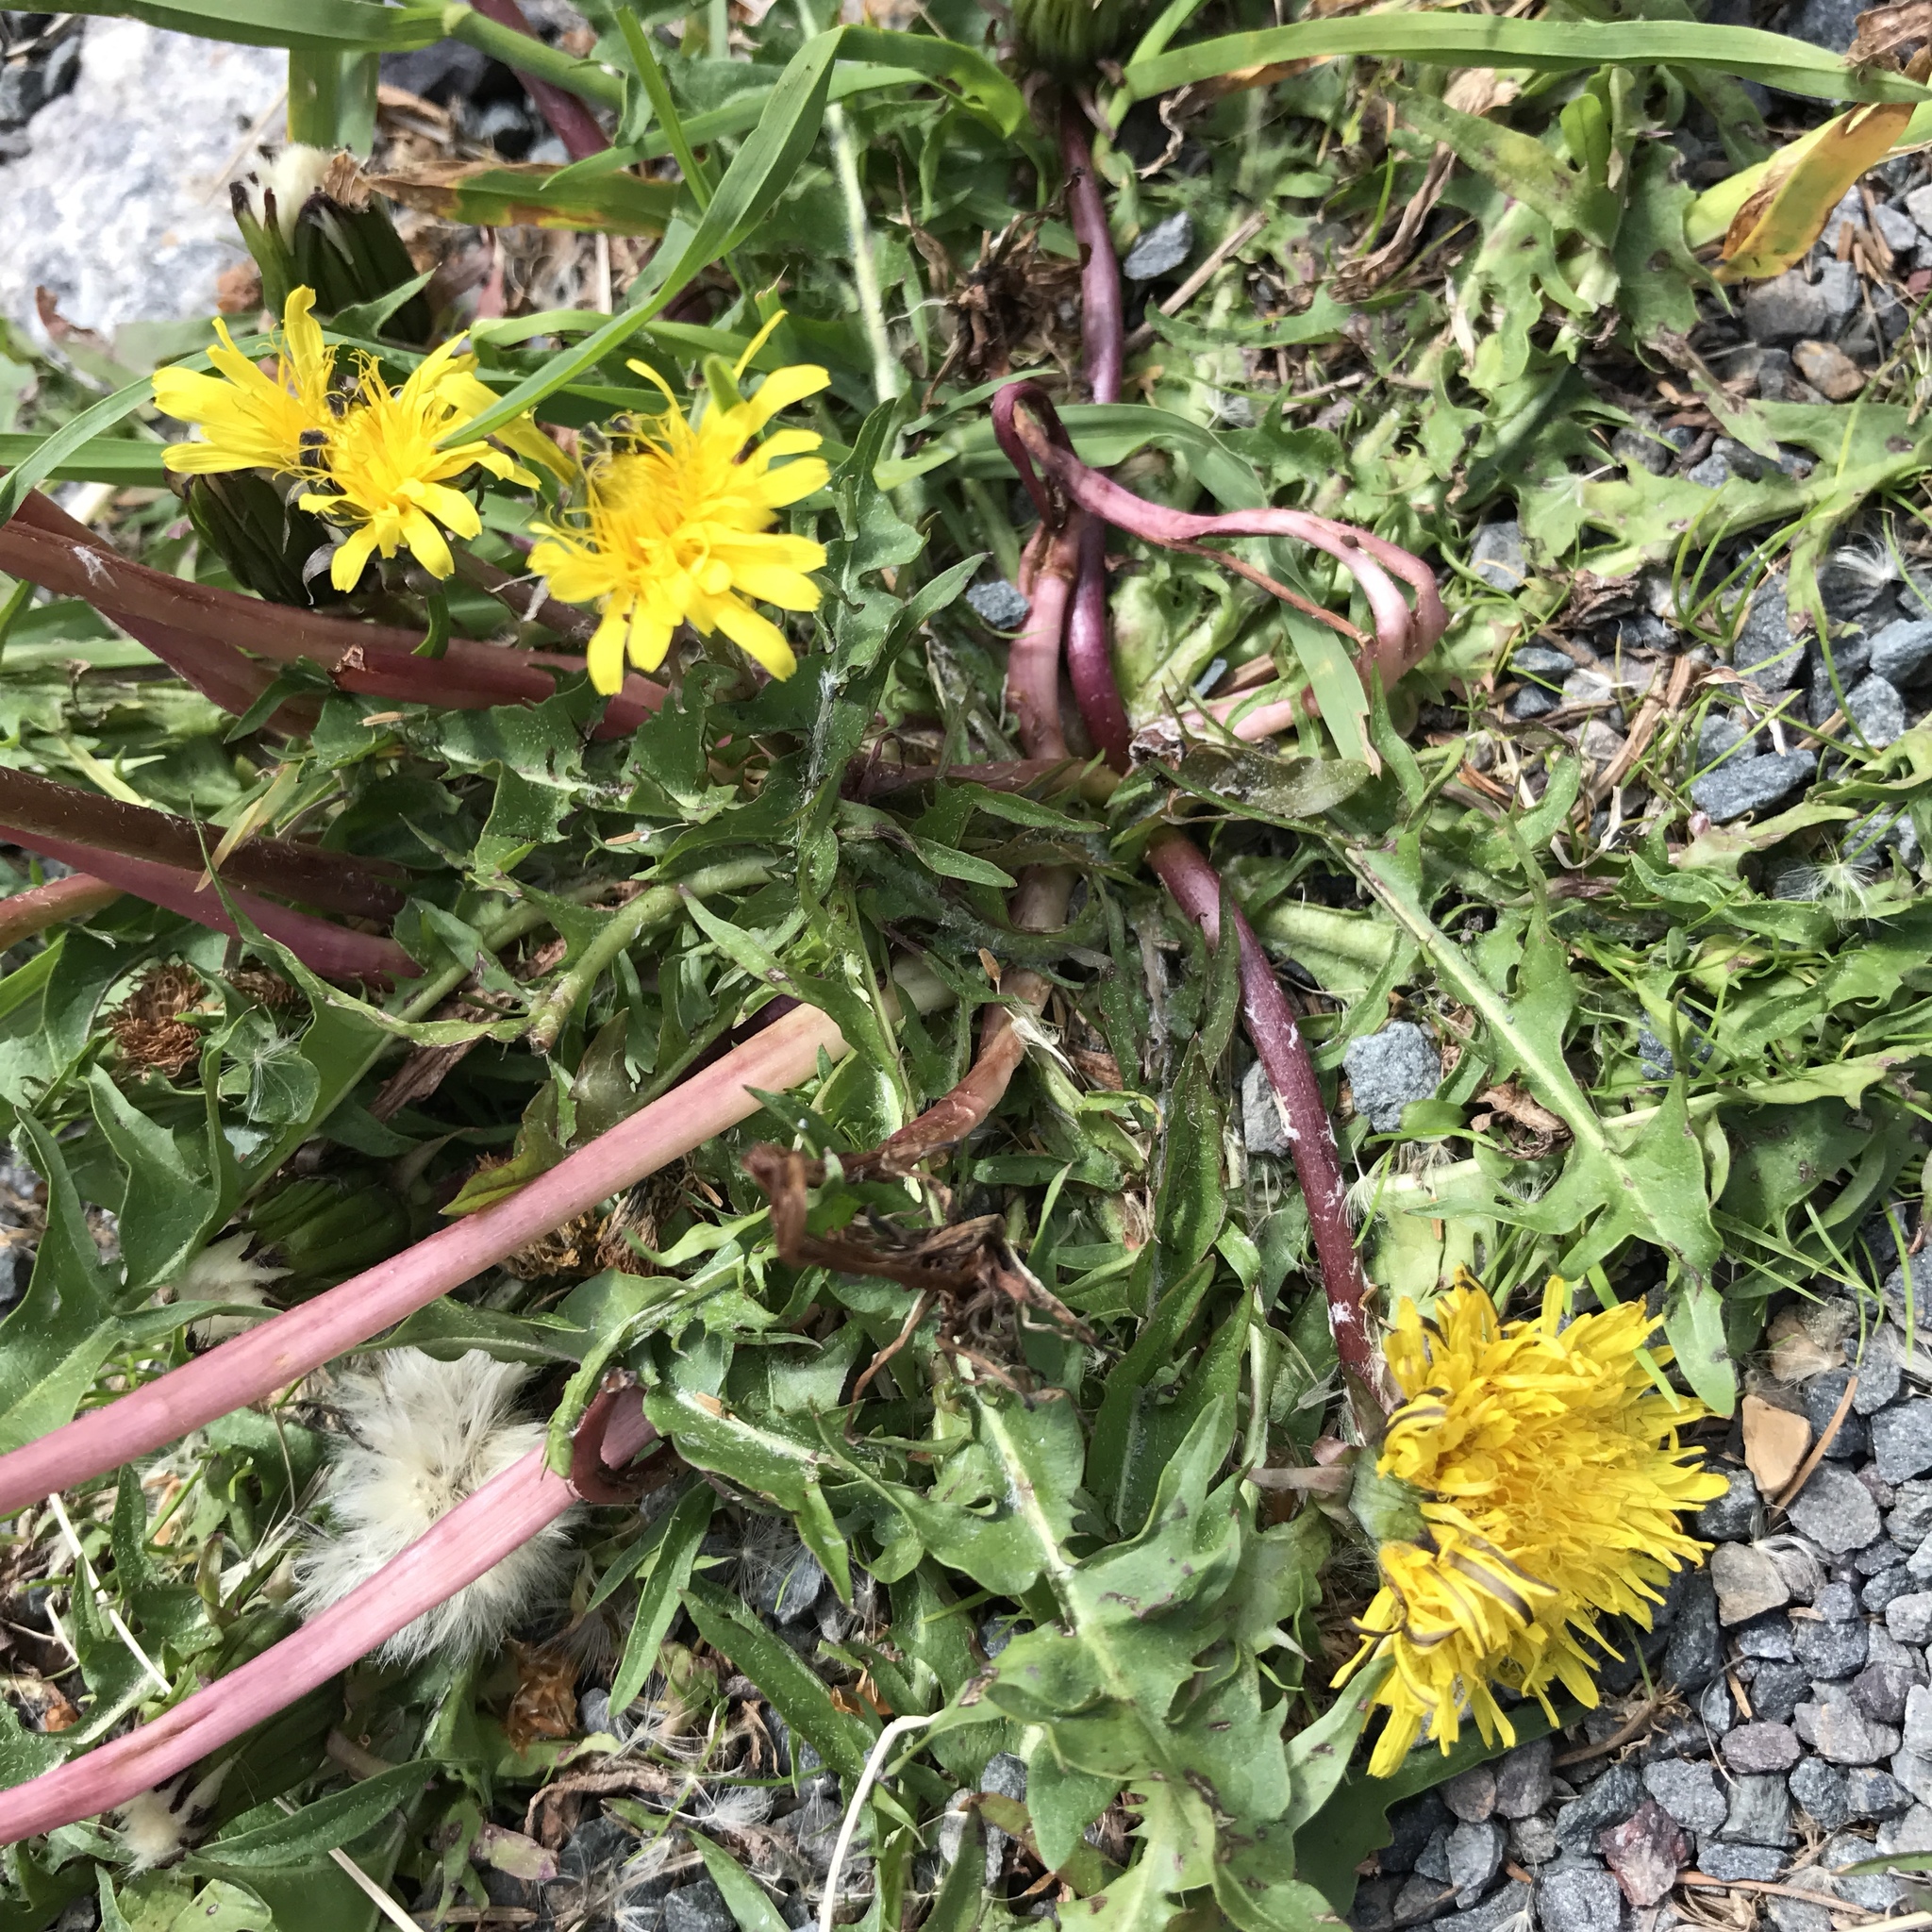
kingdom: Plantae
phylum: Tracheophyta
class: Magnoliopsida
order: Asterales
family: Asteraceae
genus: Taraxacum
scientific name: Taraxacum officinale
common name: Common dandelion
